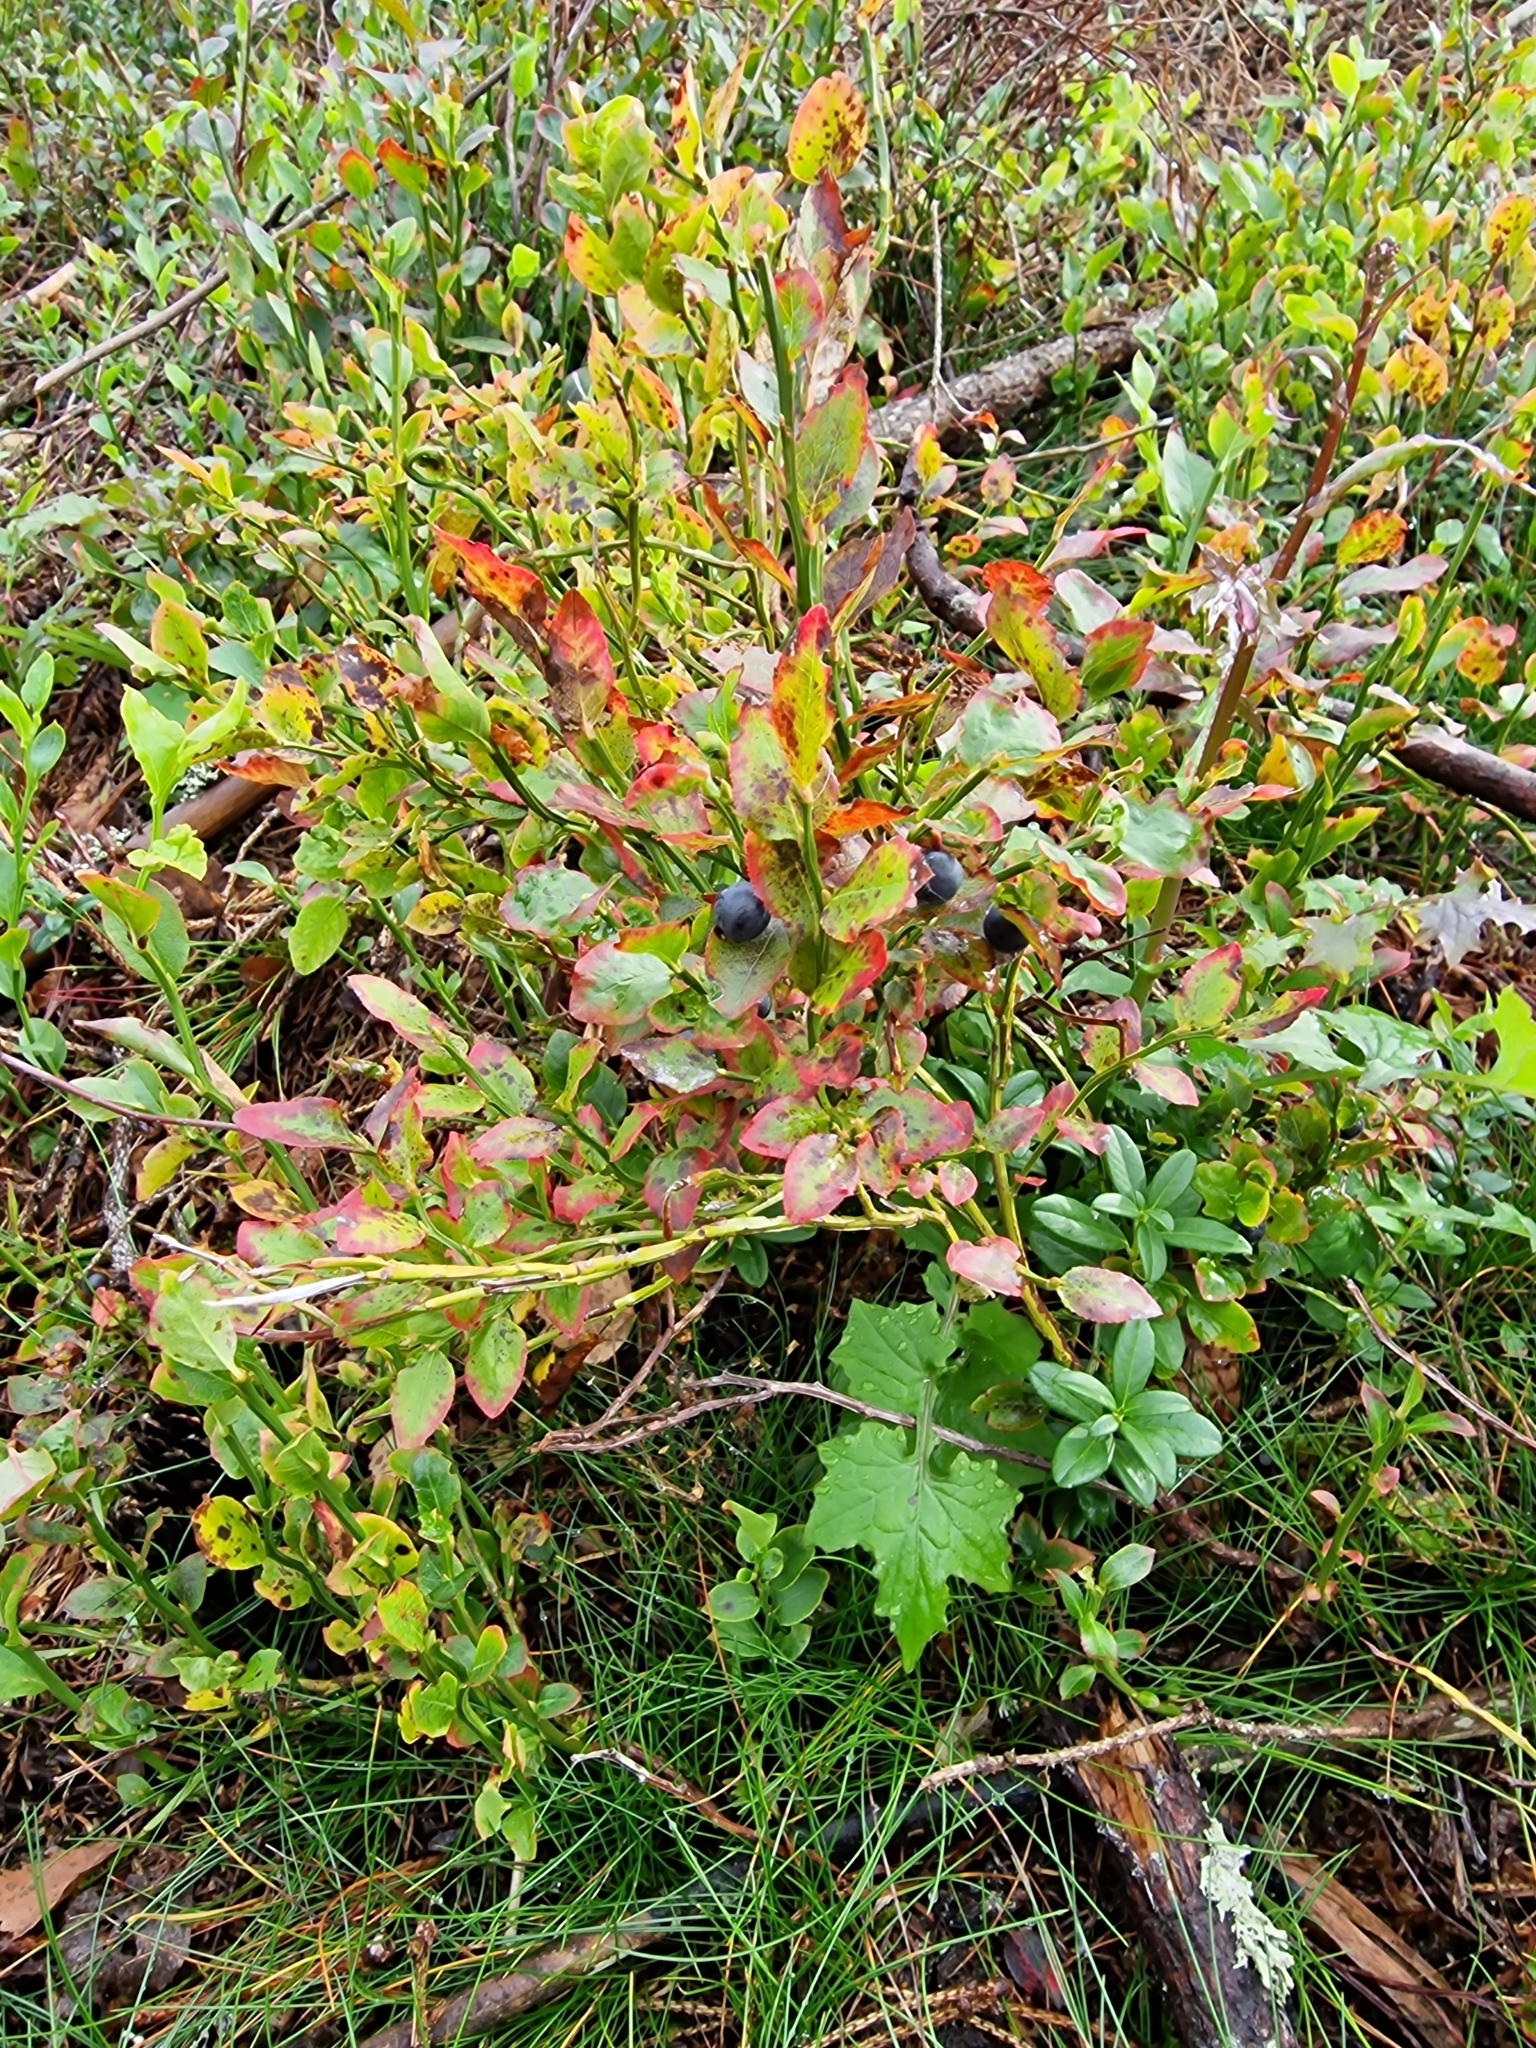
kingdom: Plantae
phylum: Tracheophyta
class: Magnoliopsida
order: Ericales
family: Ericaceae
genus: Vaccinium
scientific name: Vaccinium myrtillus
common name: Bilberry
